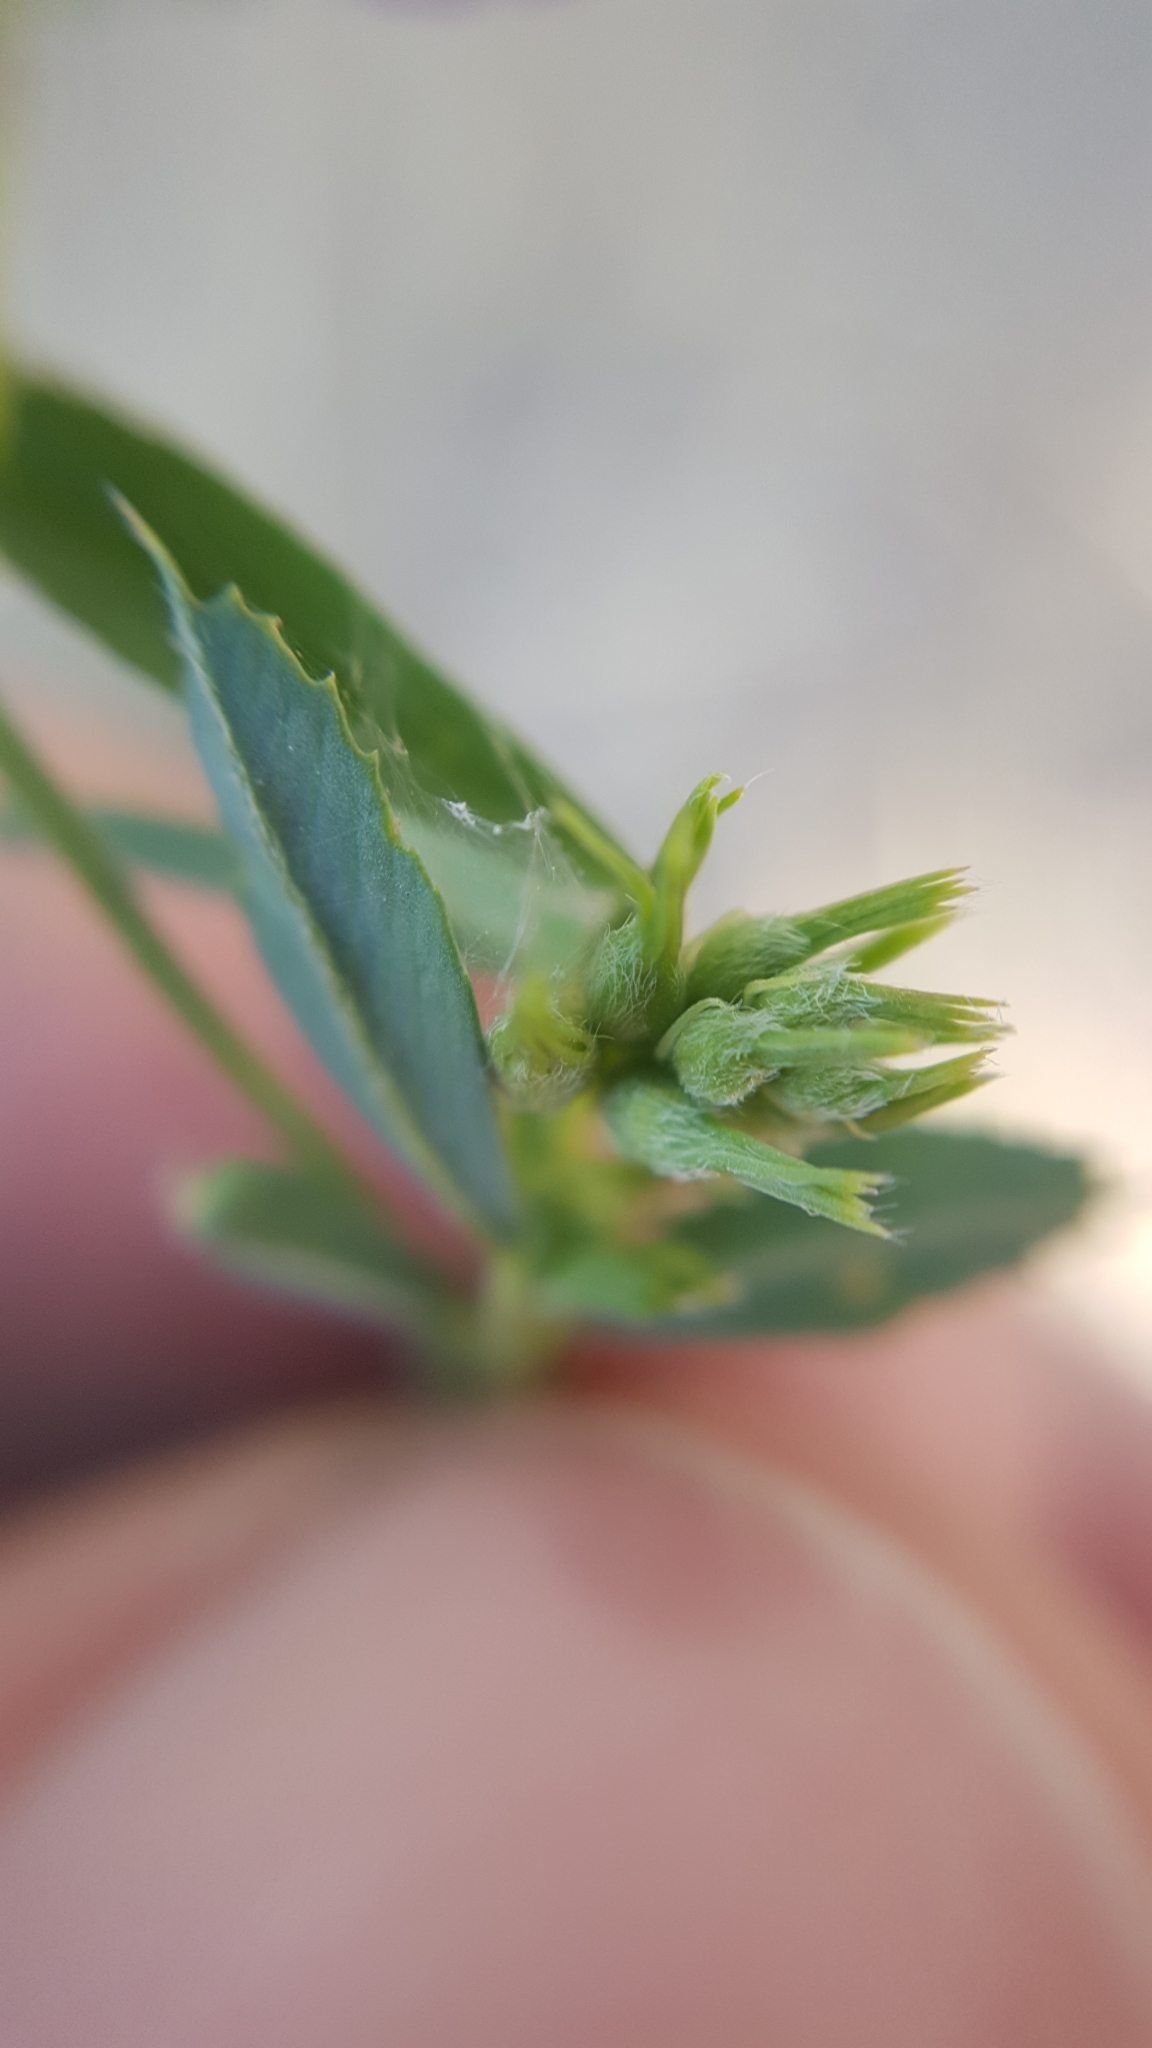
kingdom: Plantae
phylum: Tracheophyta
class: Magnoliopsida
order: Fabales
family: Fabaceae
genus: Medicago
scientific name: Medicago sativa
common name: Alfalfa
